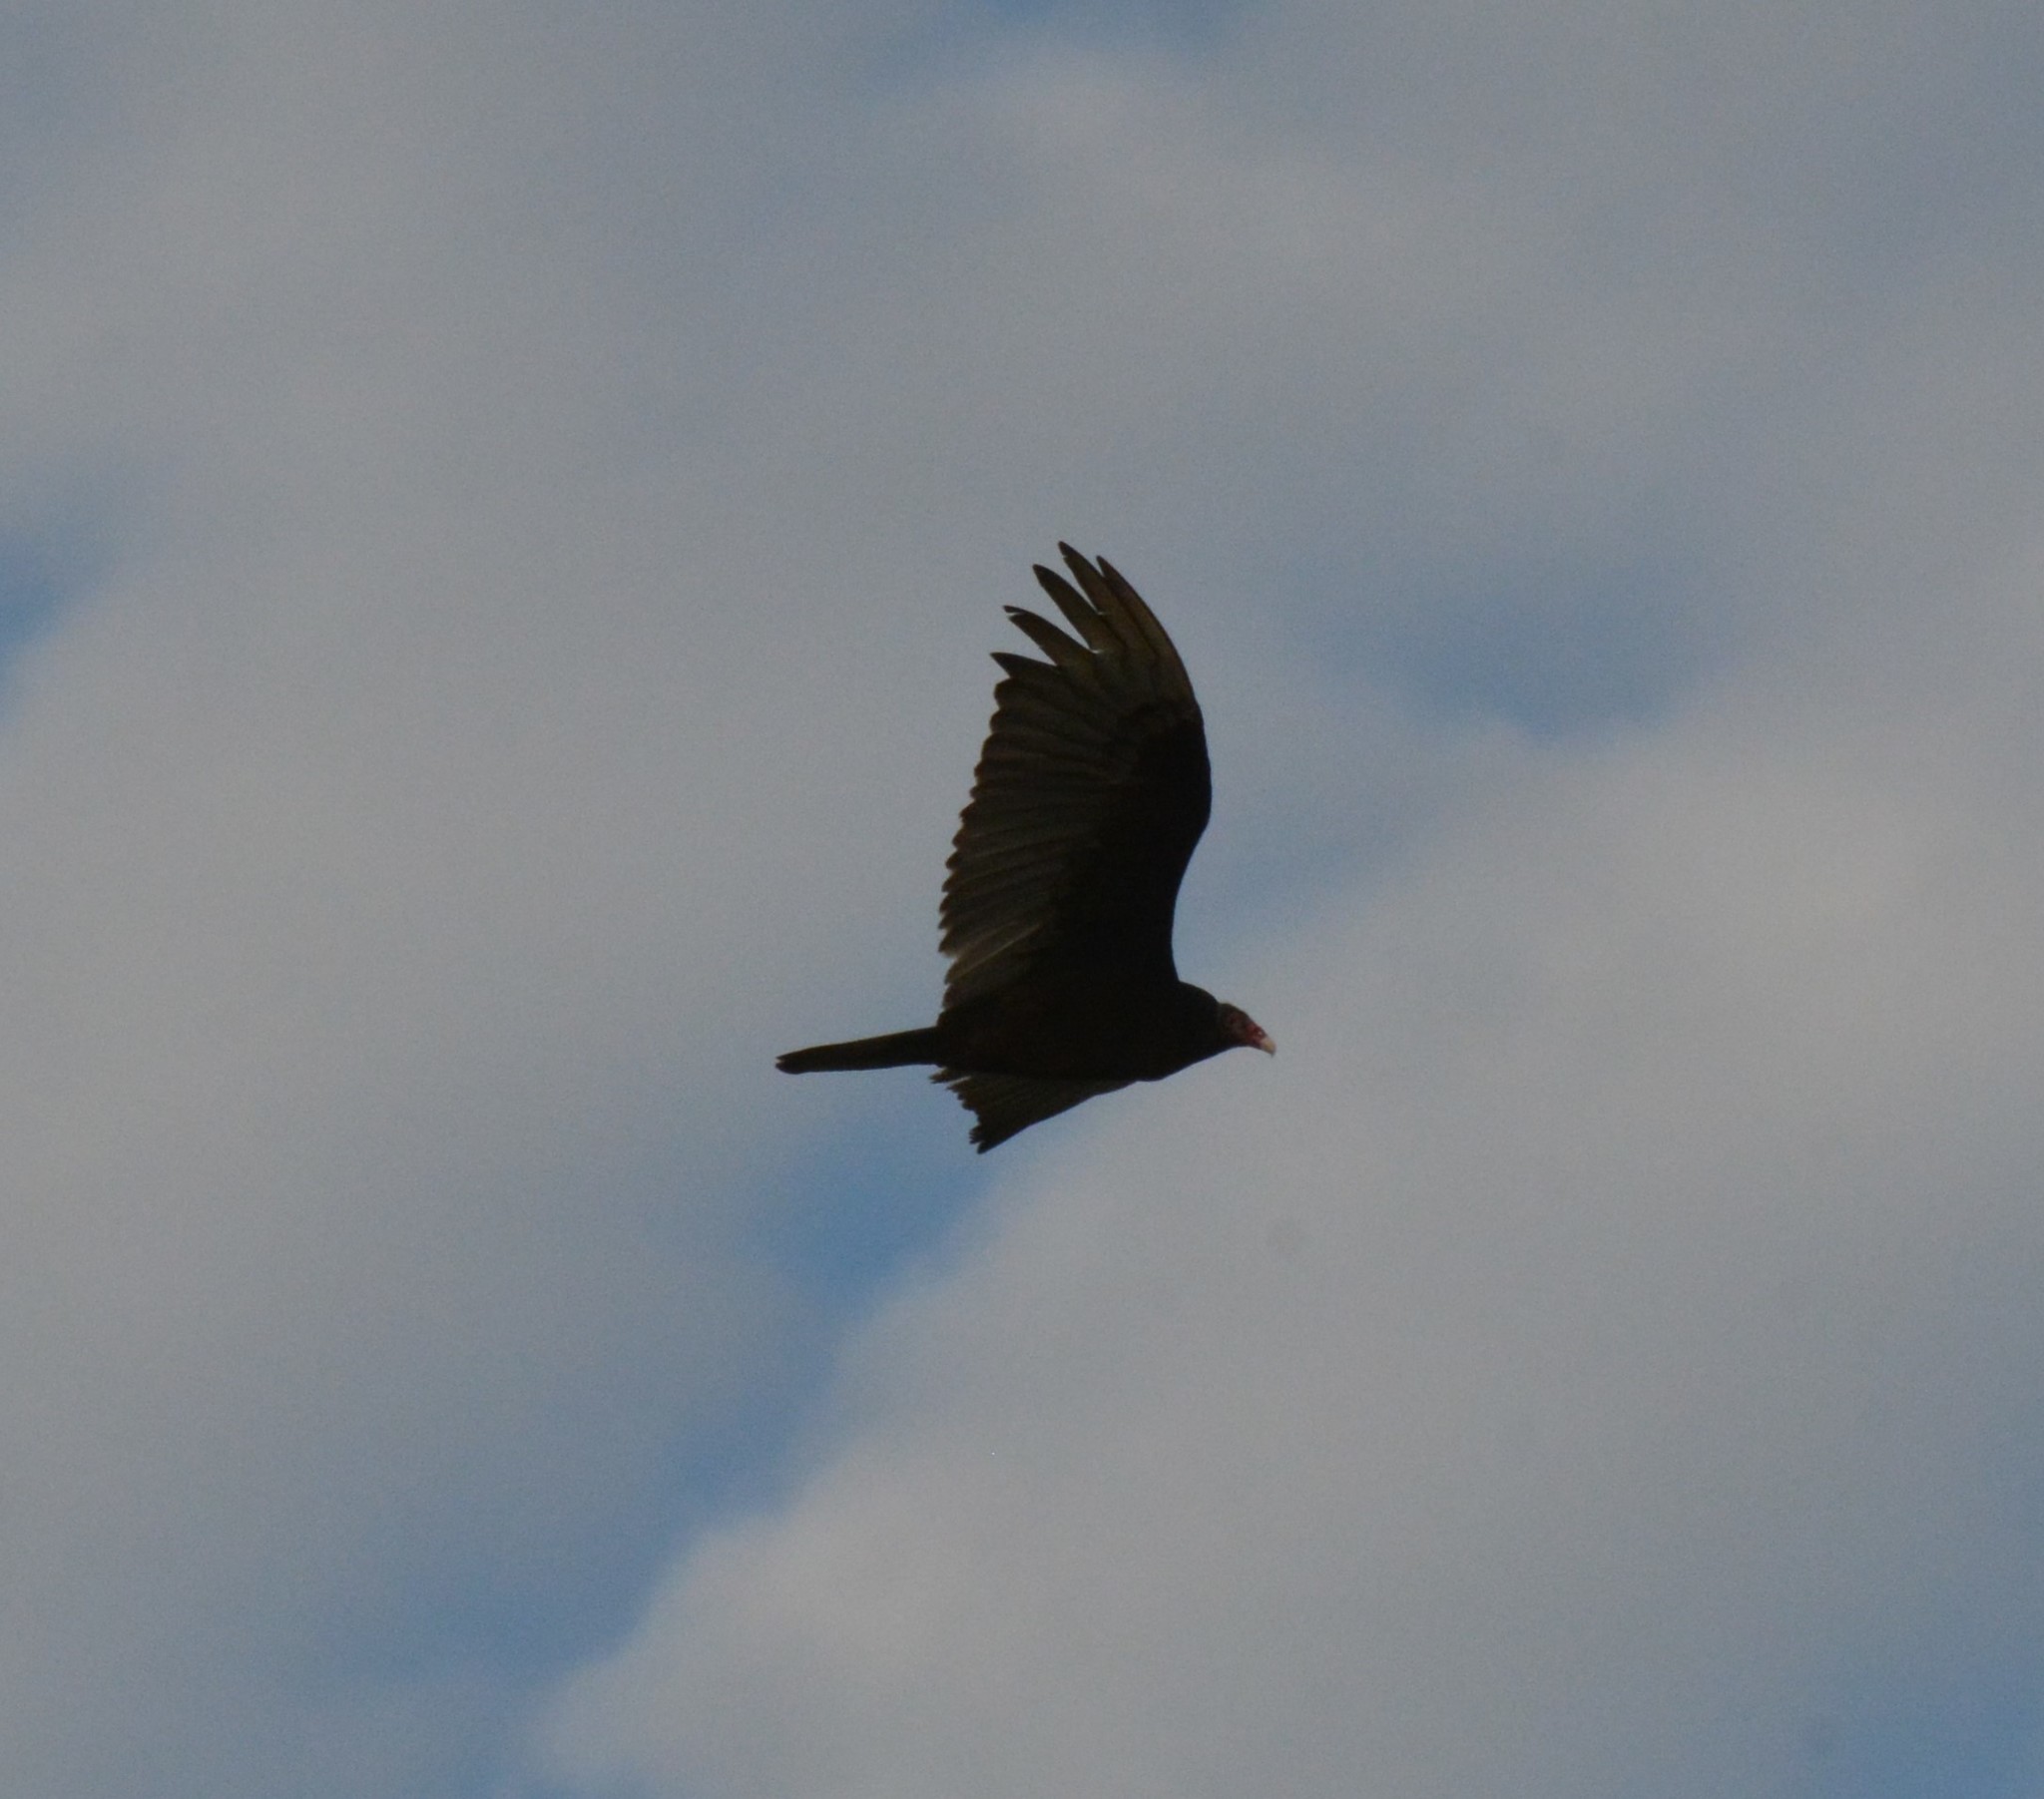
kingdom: Animalia
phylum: Chordata
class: Aves
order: Accipitriformes
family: Cathartidae
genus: Cathartes
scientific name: Cathartes aura
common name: Turkey vulture
